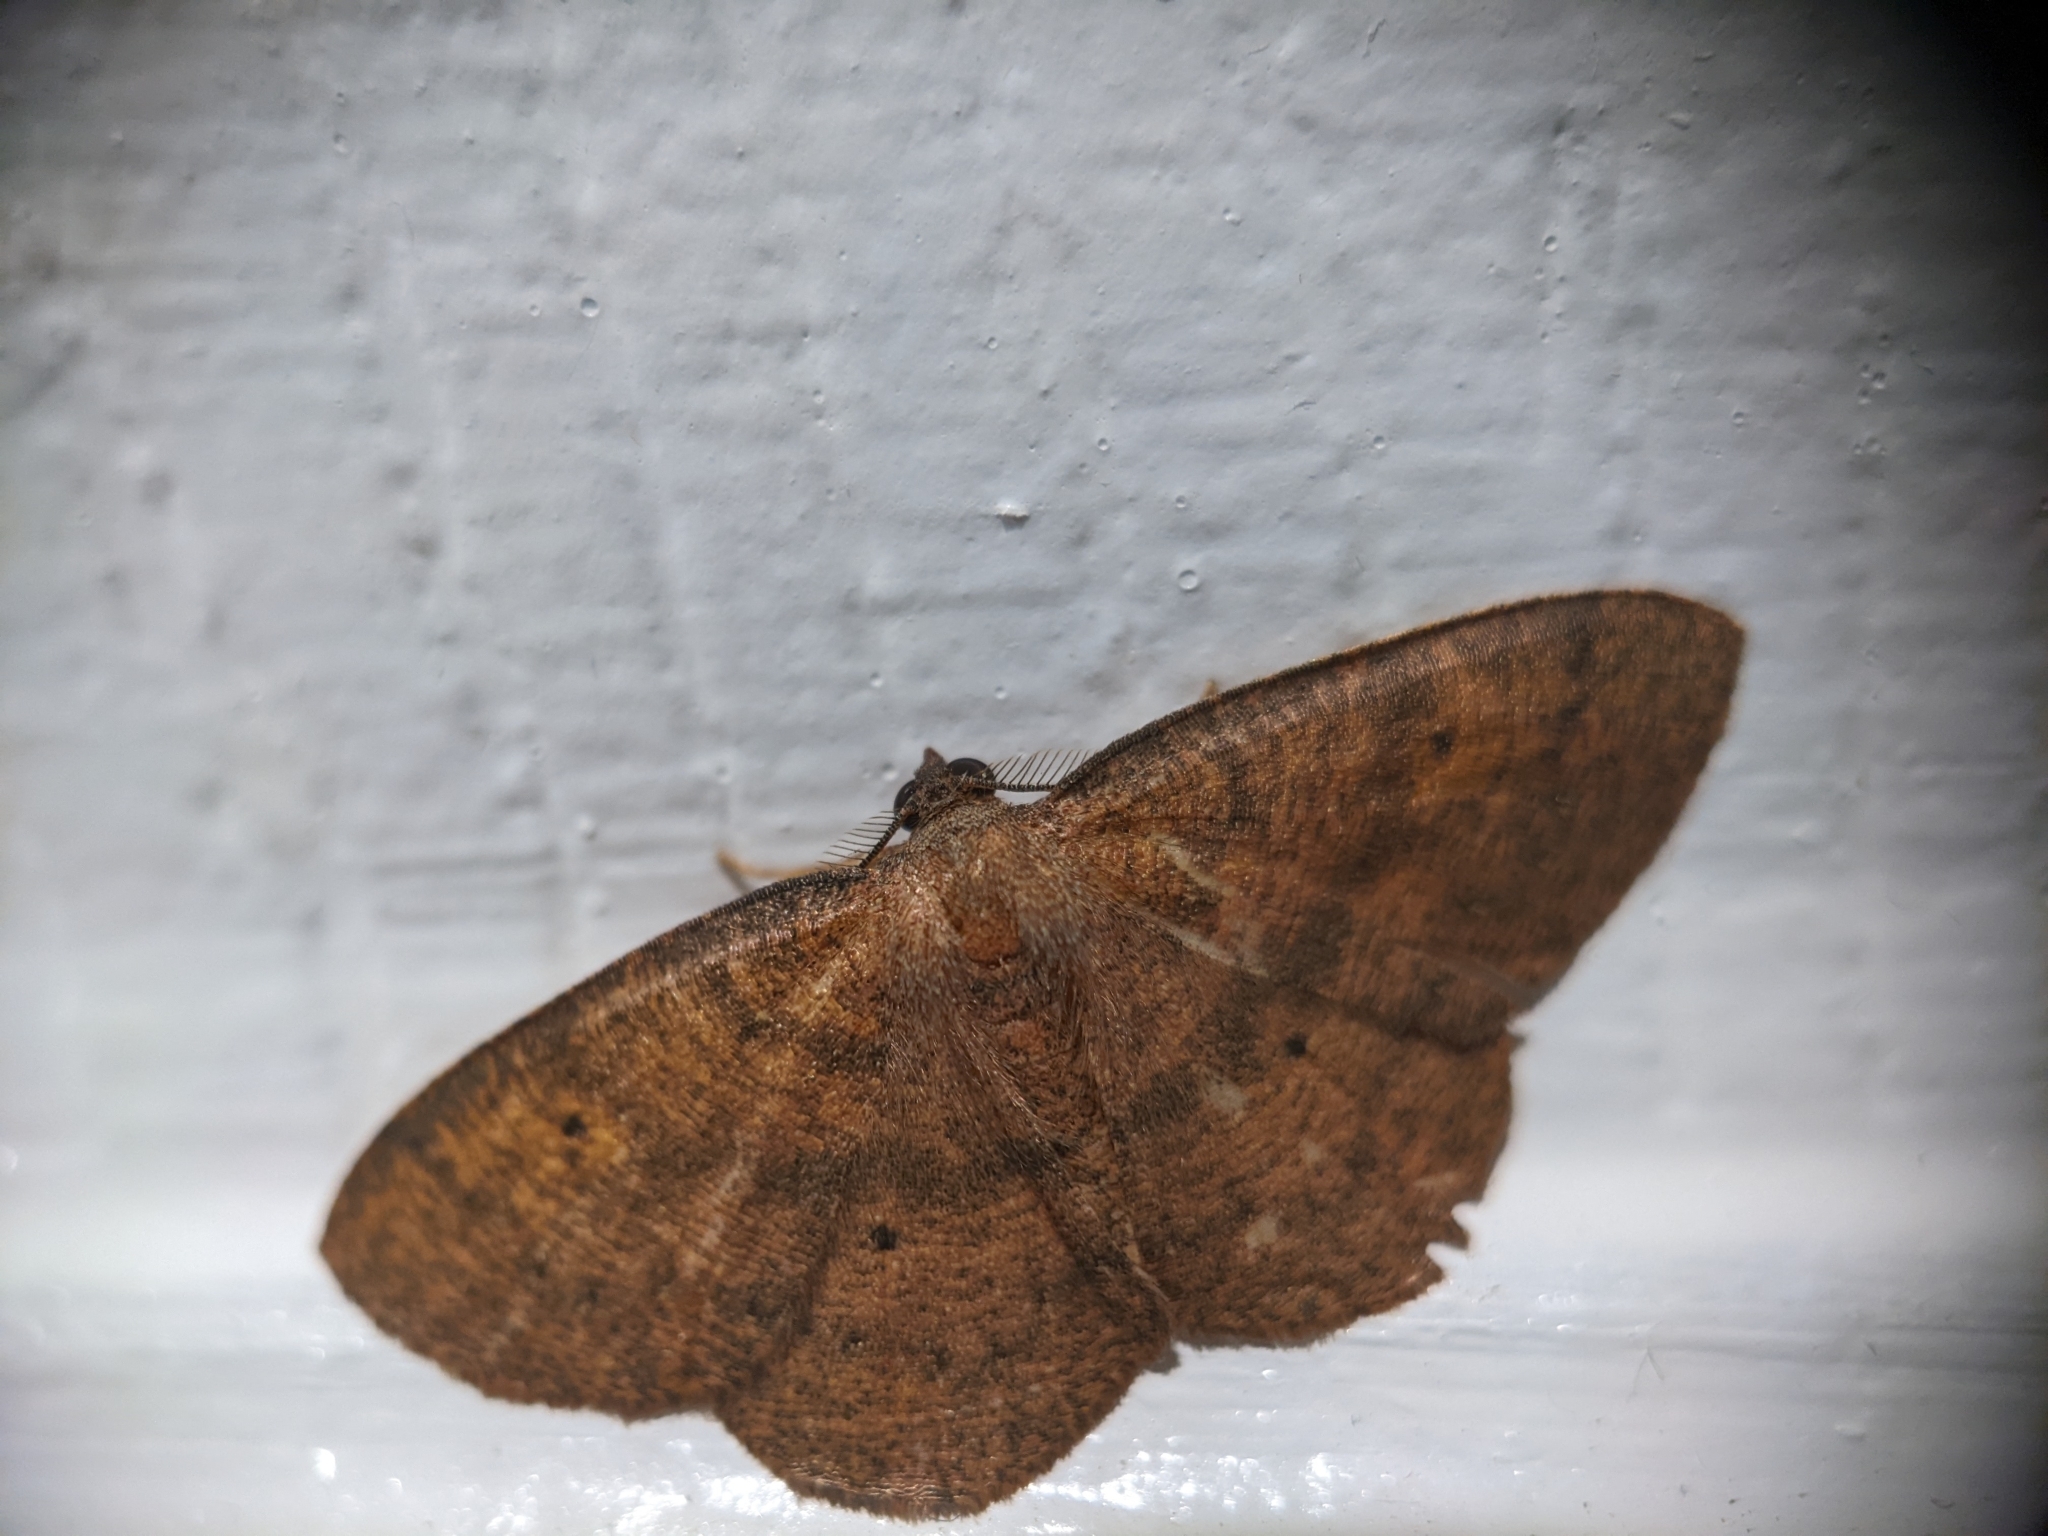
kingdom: Animalia
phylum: Arthropoda
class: Insecta
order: Lepidoptera
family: Geometridae
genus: Ilexia
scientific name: Ilexia intractata
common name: Black-dotted ruddy moth
